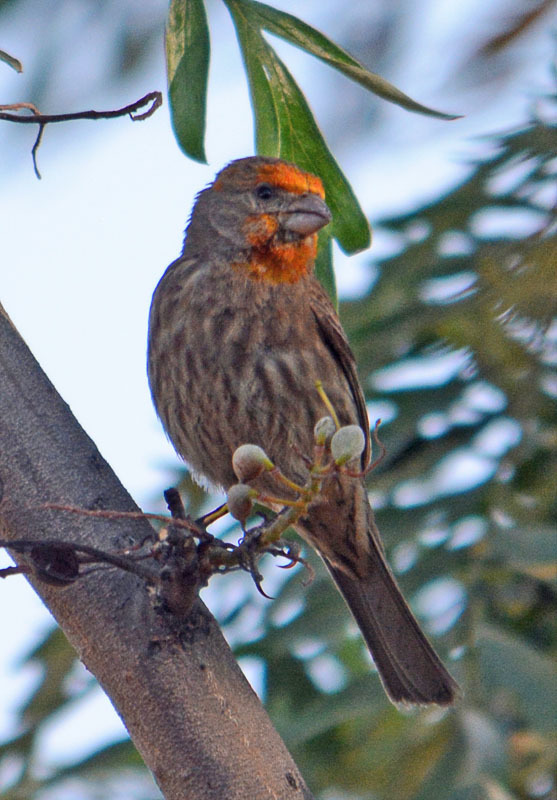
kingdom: Animalia
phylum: Chordata
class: Aves
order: Passeriformes
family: Fringillidae
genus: Haemorhous
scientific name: Haemorhous mexicanus
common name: House finch
